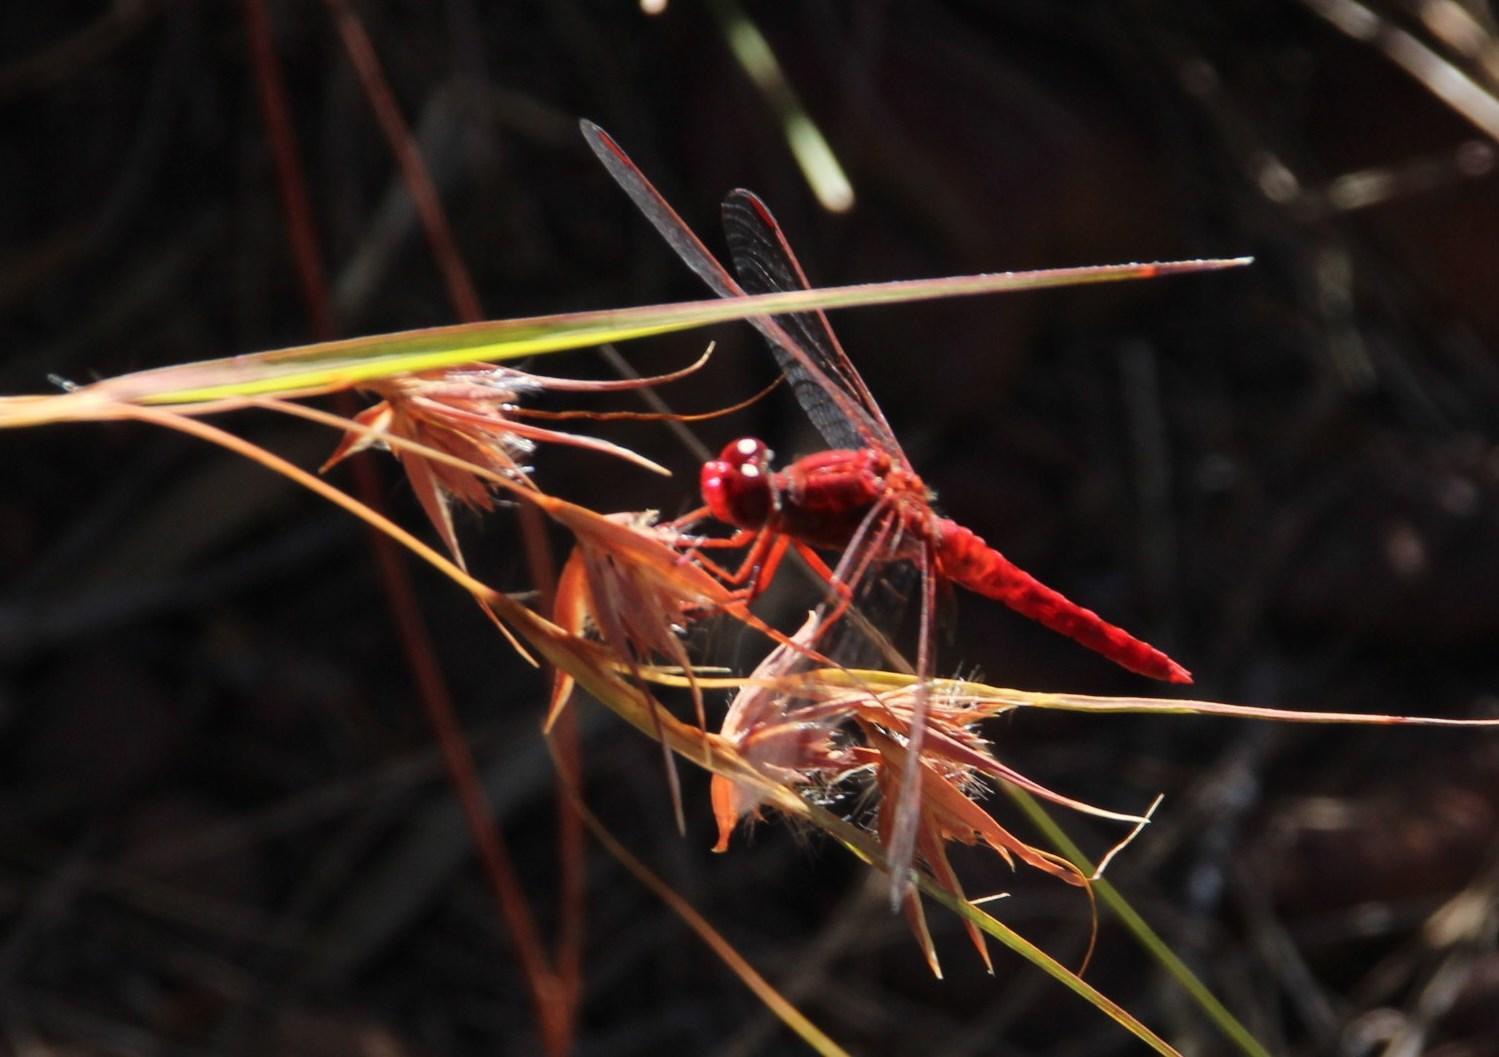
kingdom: Animalia
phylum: Arthropoda
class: Insecta
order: Odonata
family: Libellulidae
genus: Crocothemis
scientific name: Crocothemis sanguinolenta
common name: Little scarlet
